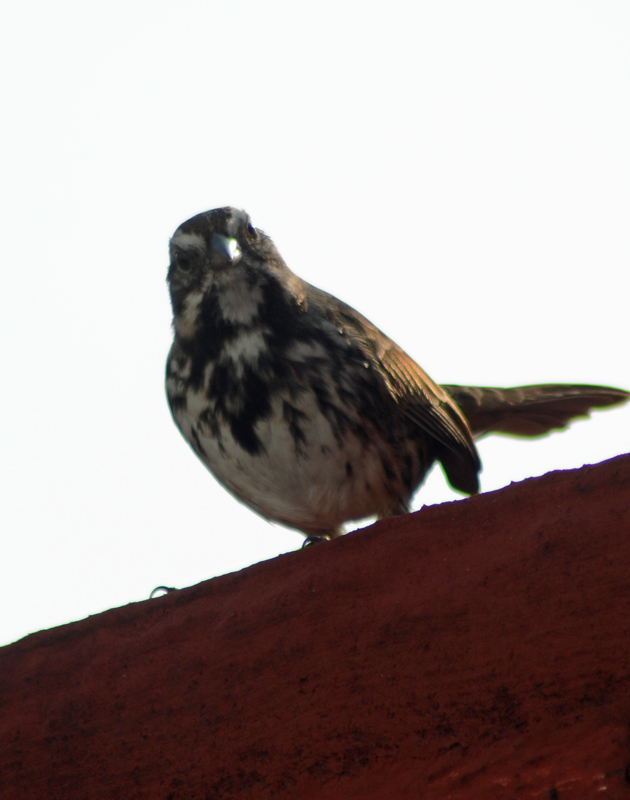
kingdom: Animalia
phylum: Chordata
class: Aves
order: Passeriformes
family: Passerellidae
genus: Melospiza
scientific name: Melospiza melodia
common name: Song sparrow
